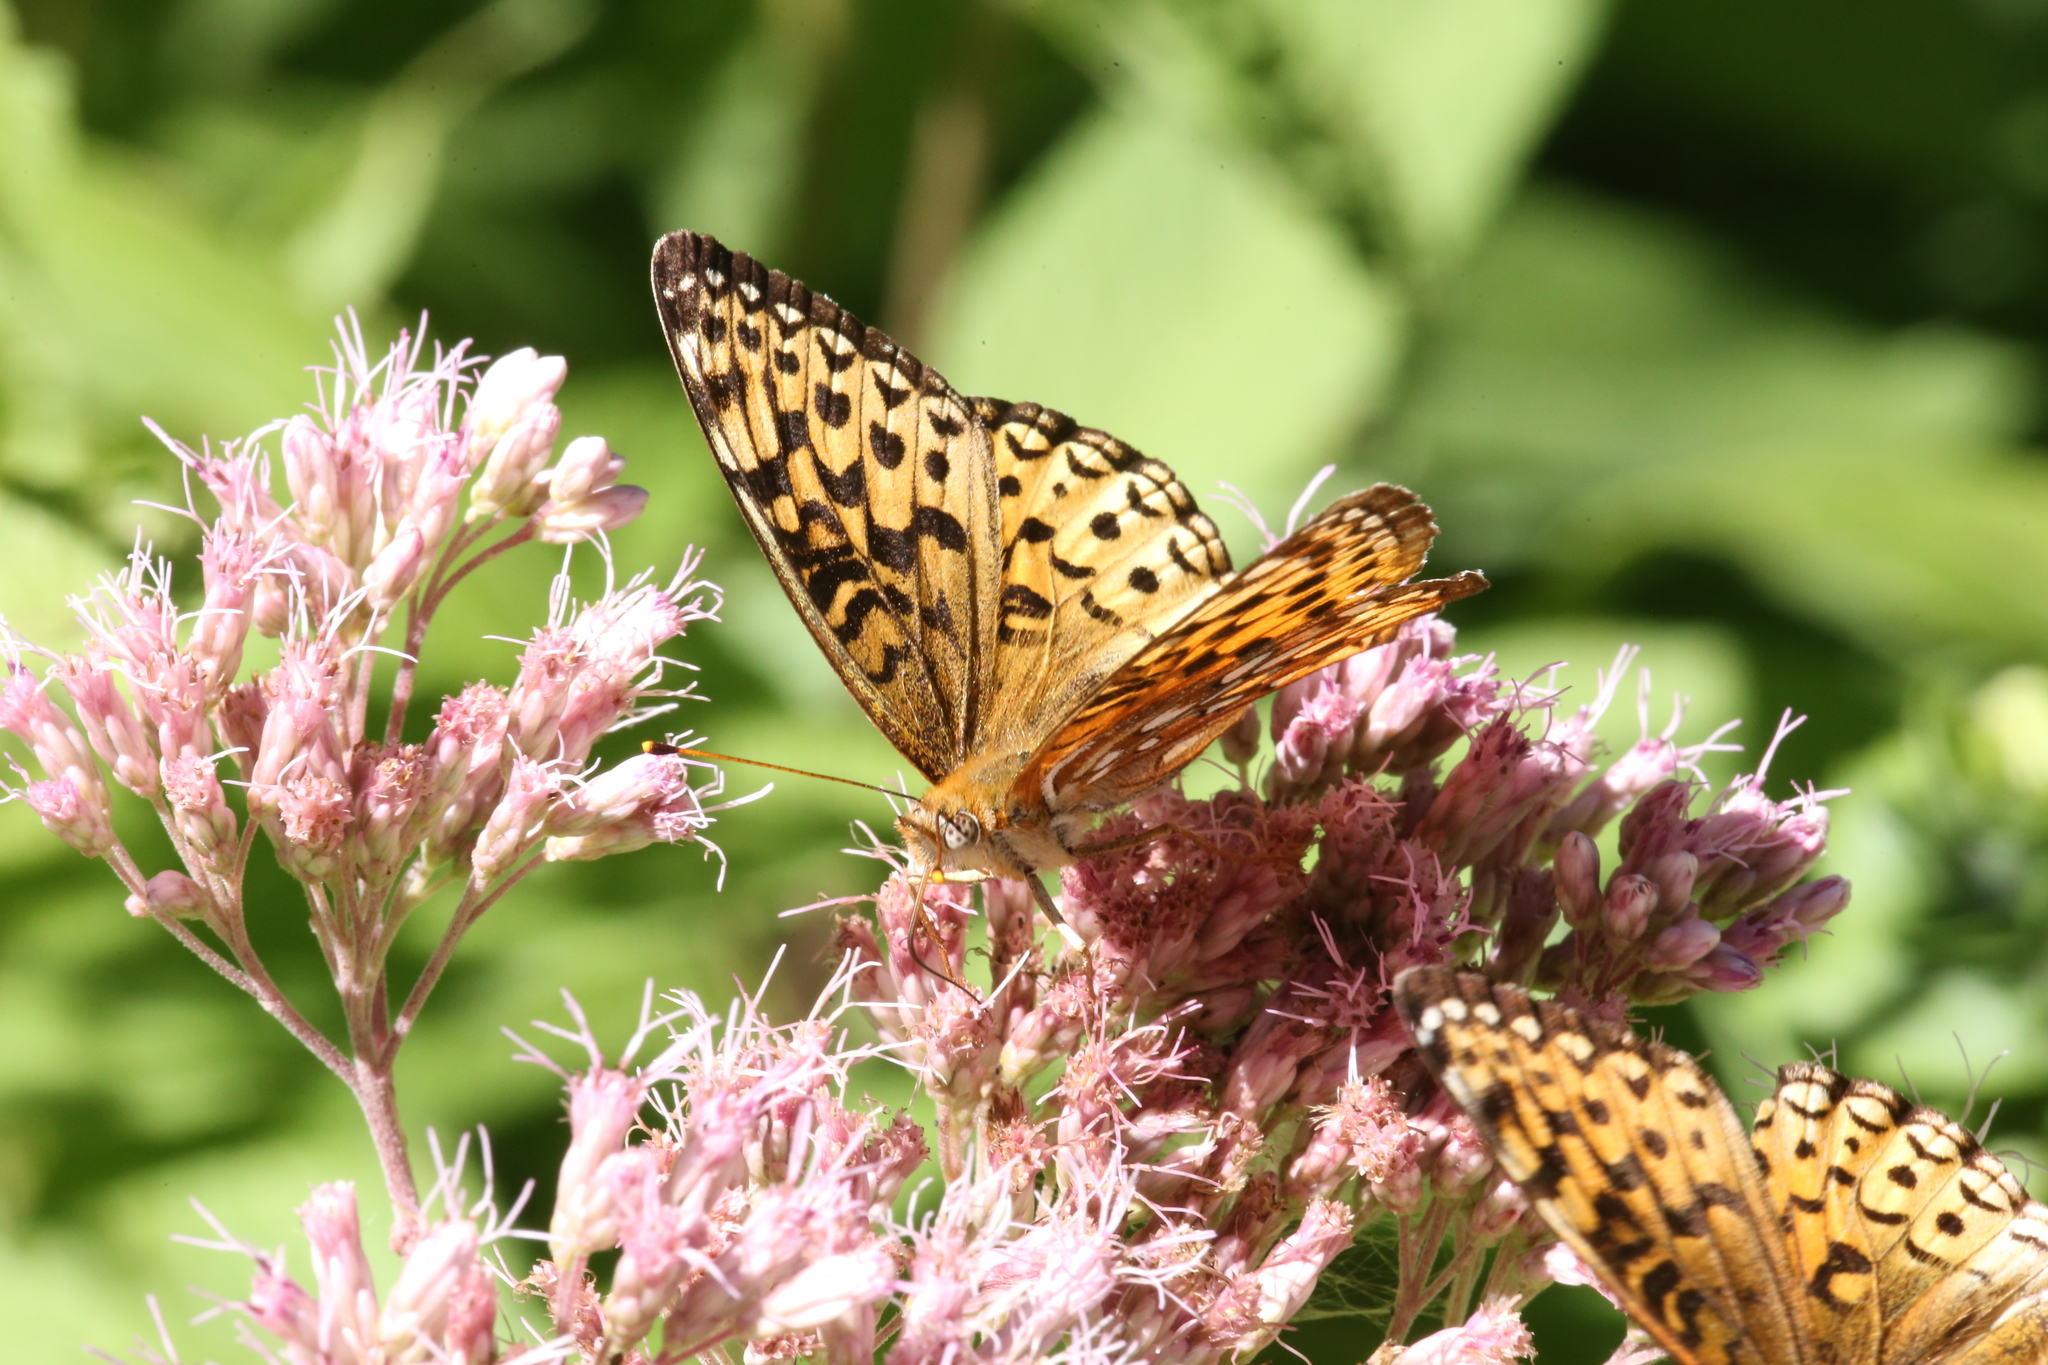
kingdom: Animalia
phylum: Arthropoda
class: Insecta
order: Lepidoptera
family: Nymphalidae
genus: Speyeria
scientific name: Speyeria atlantis
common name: Atlantis fritillary
